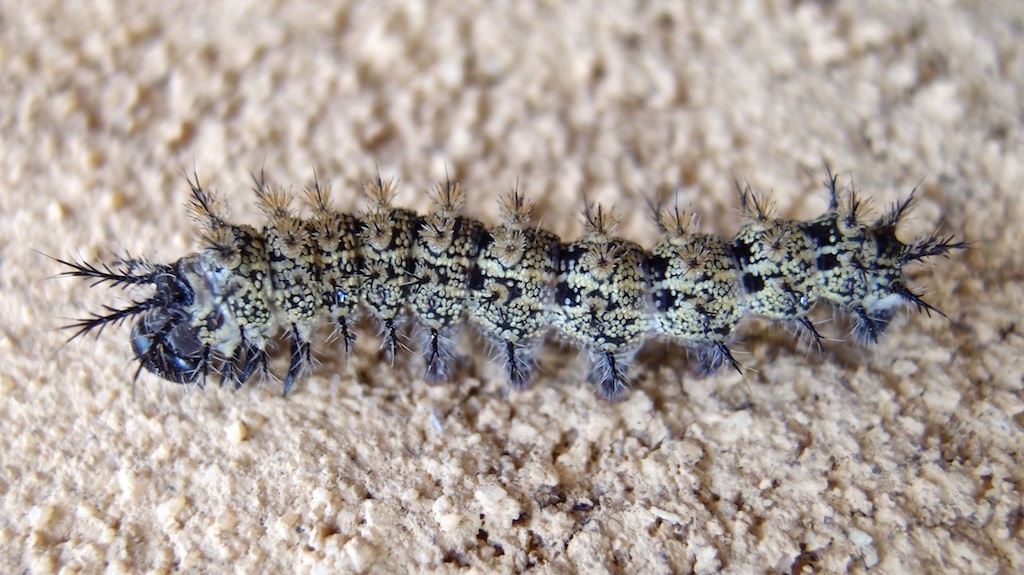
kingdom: Animalia
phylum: Arthropoda
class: Insecta
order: Lepidoptera
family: Saturniidae
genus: Hemileuca
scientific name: Hemileuca tricolor
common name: Tricolor buckmoth
